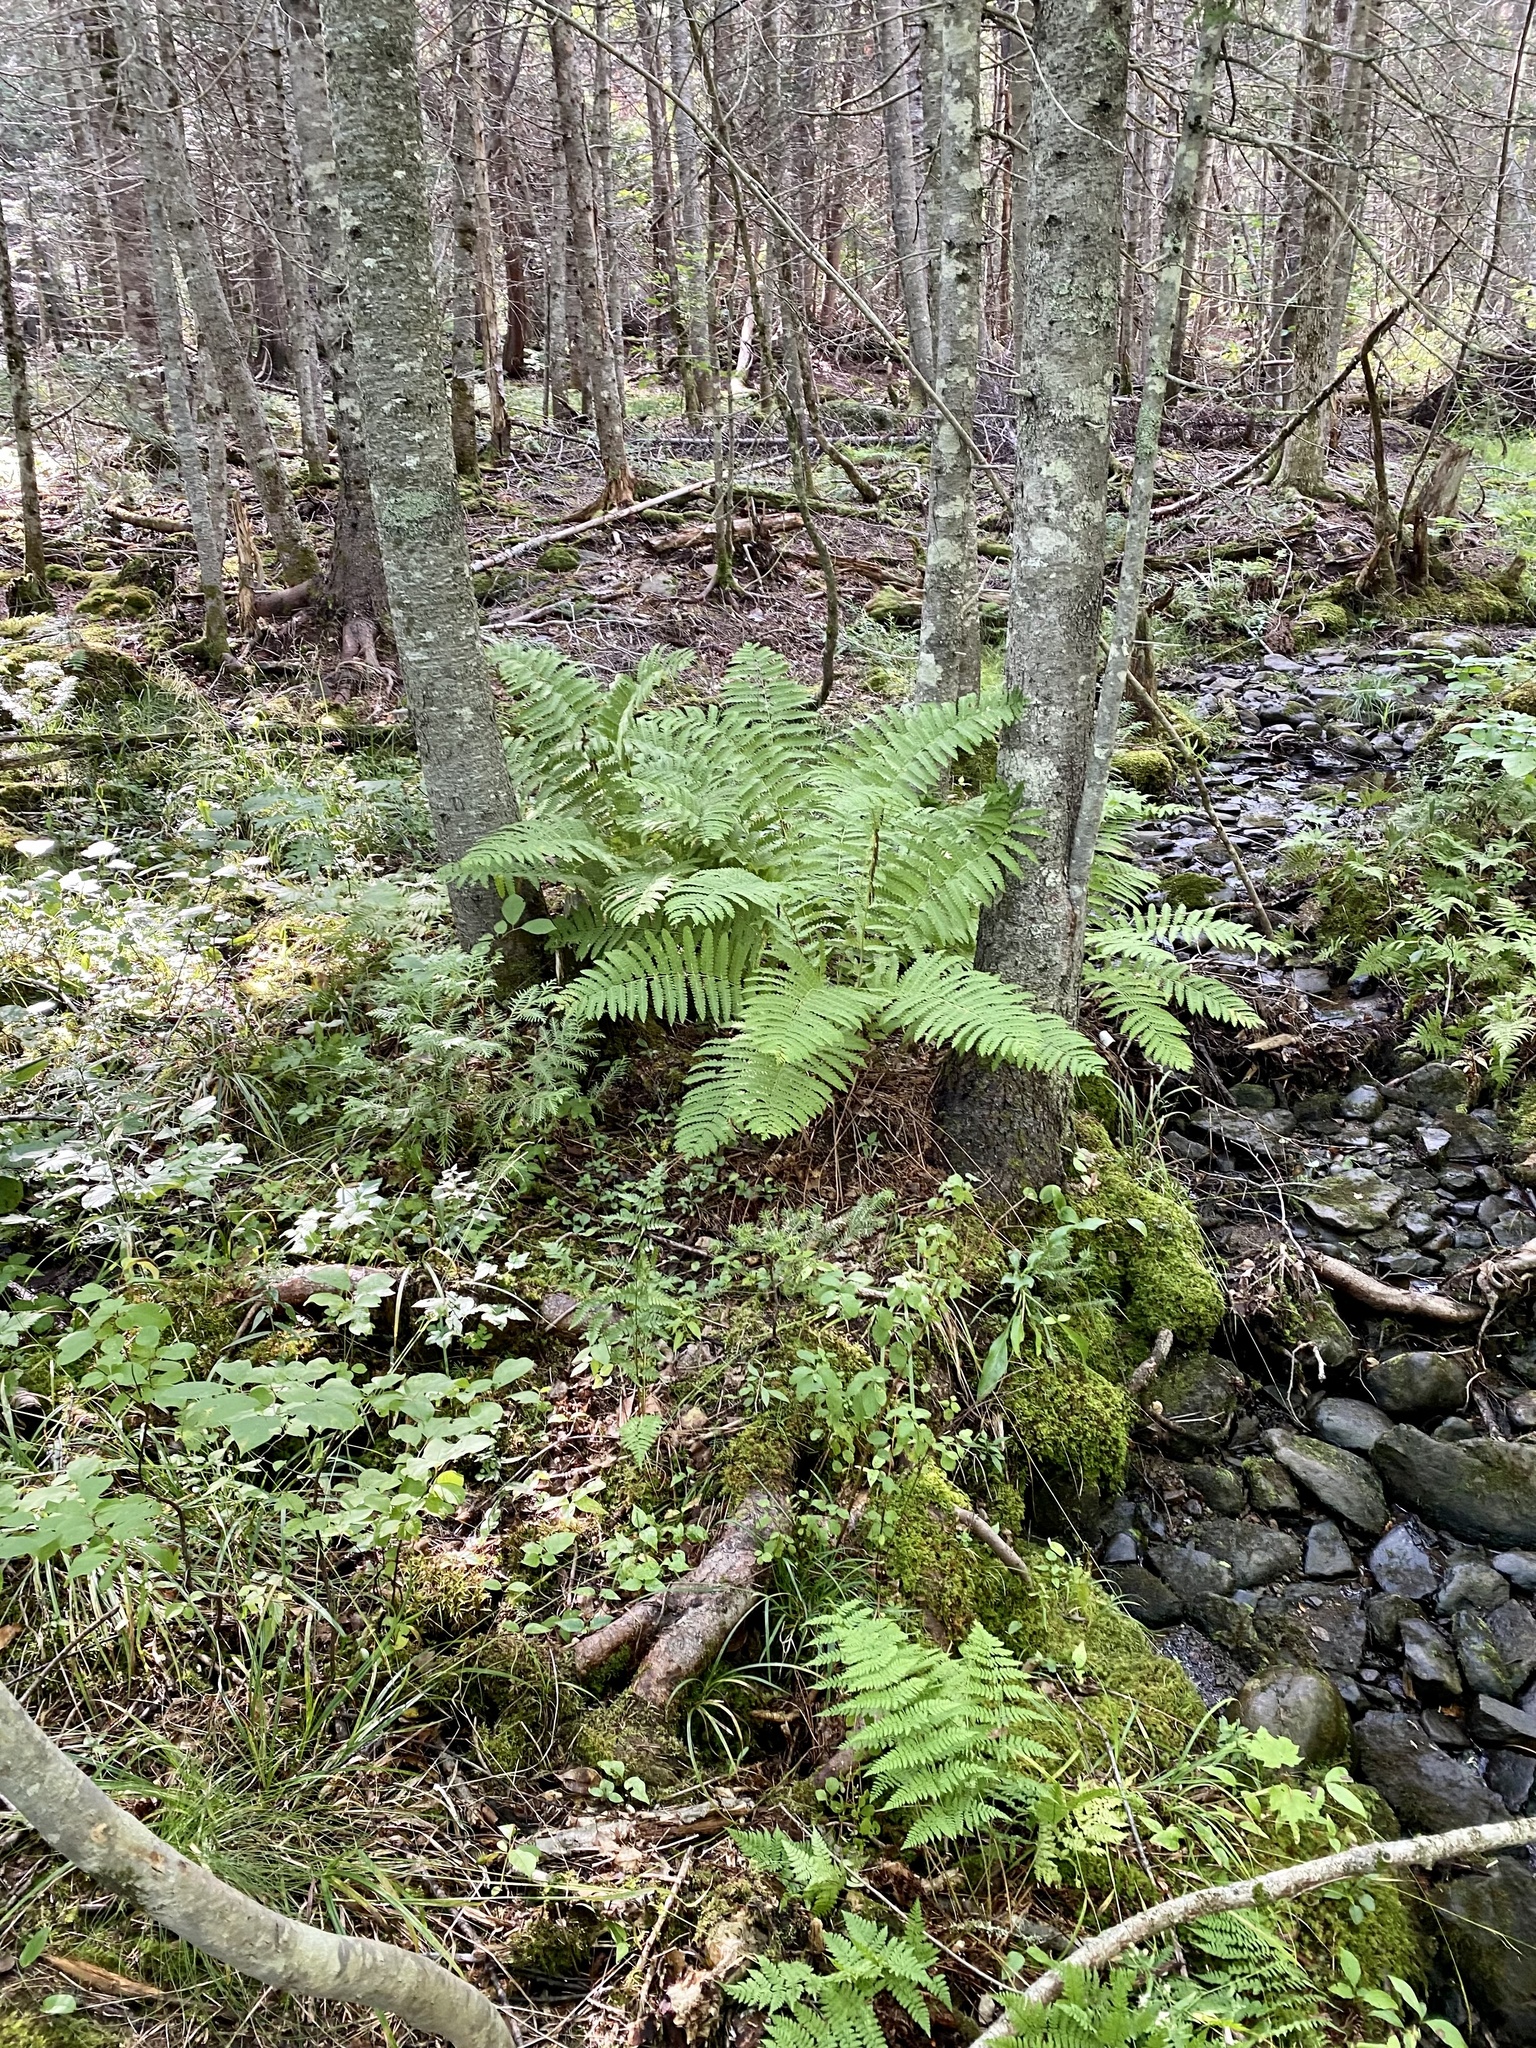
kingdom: Plantae
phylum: Tracheophyta
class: Polypodiopsida
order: Osmundales
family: Osmundaceae
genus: Claytosmunda
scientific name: Claytosmunda claytoniana
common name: Clayton's fern
